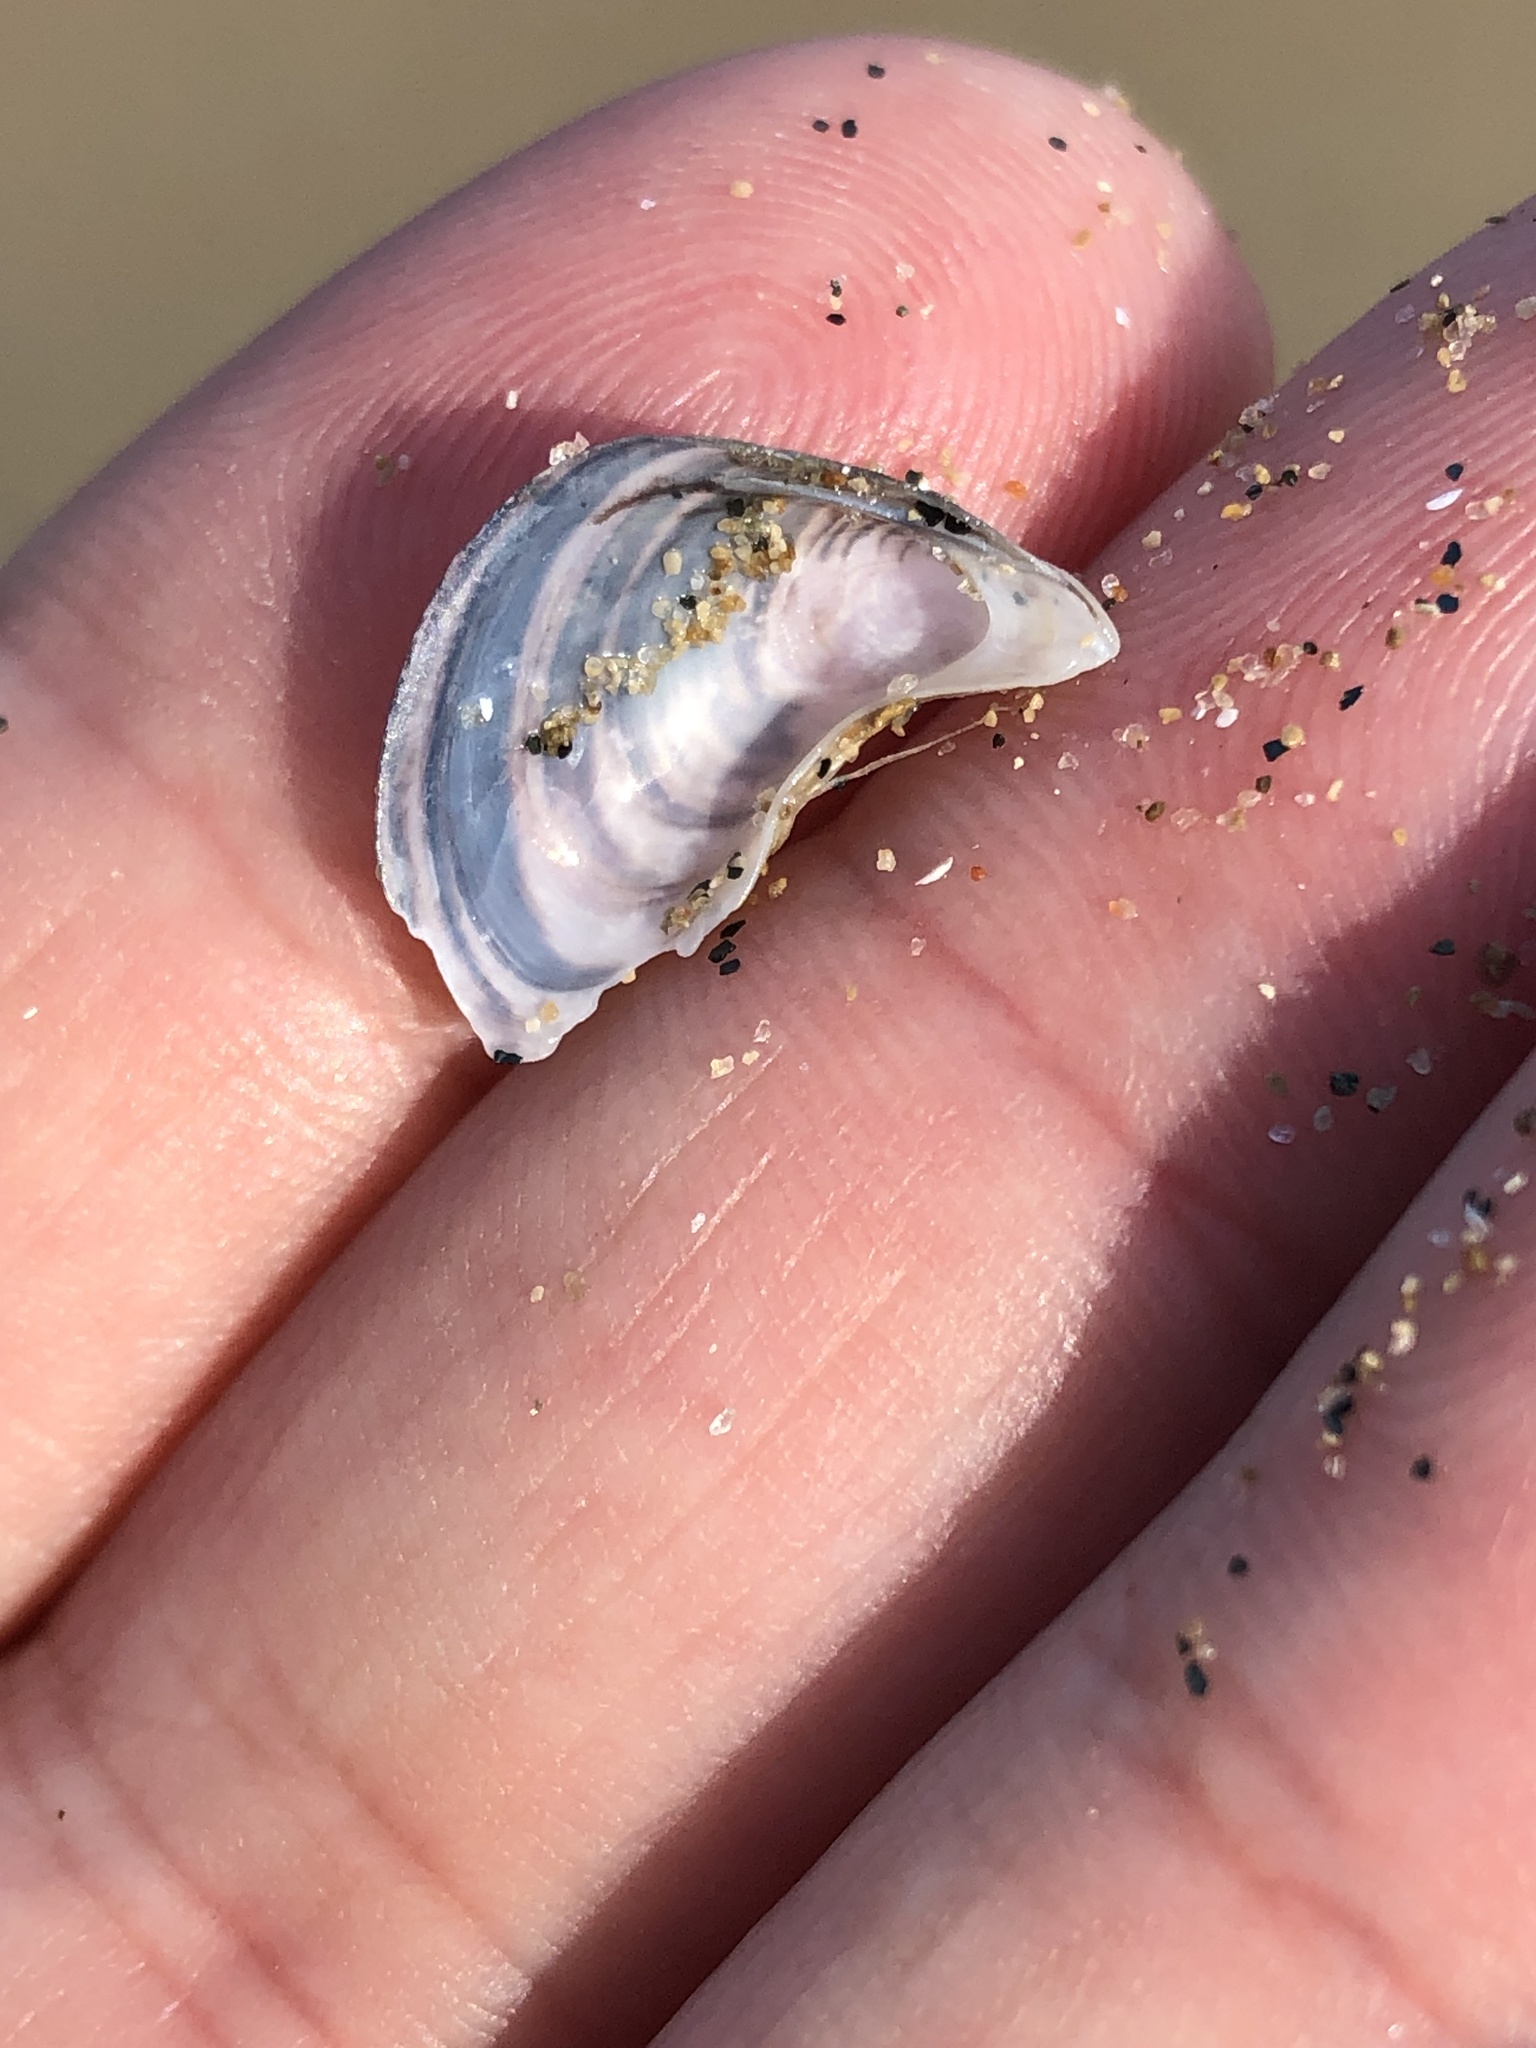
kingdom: Animalia
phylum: Mollusca
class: Bivalvia
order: Myida
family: Dreissenidae
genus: Dreissena
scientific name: Dreissena polymorpha
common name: Zebra mussel
